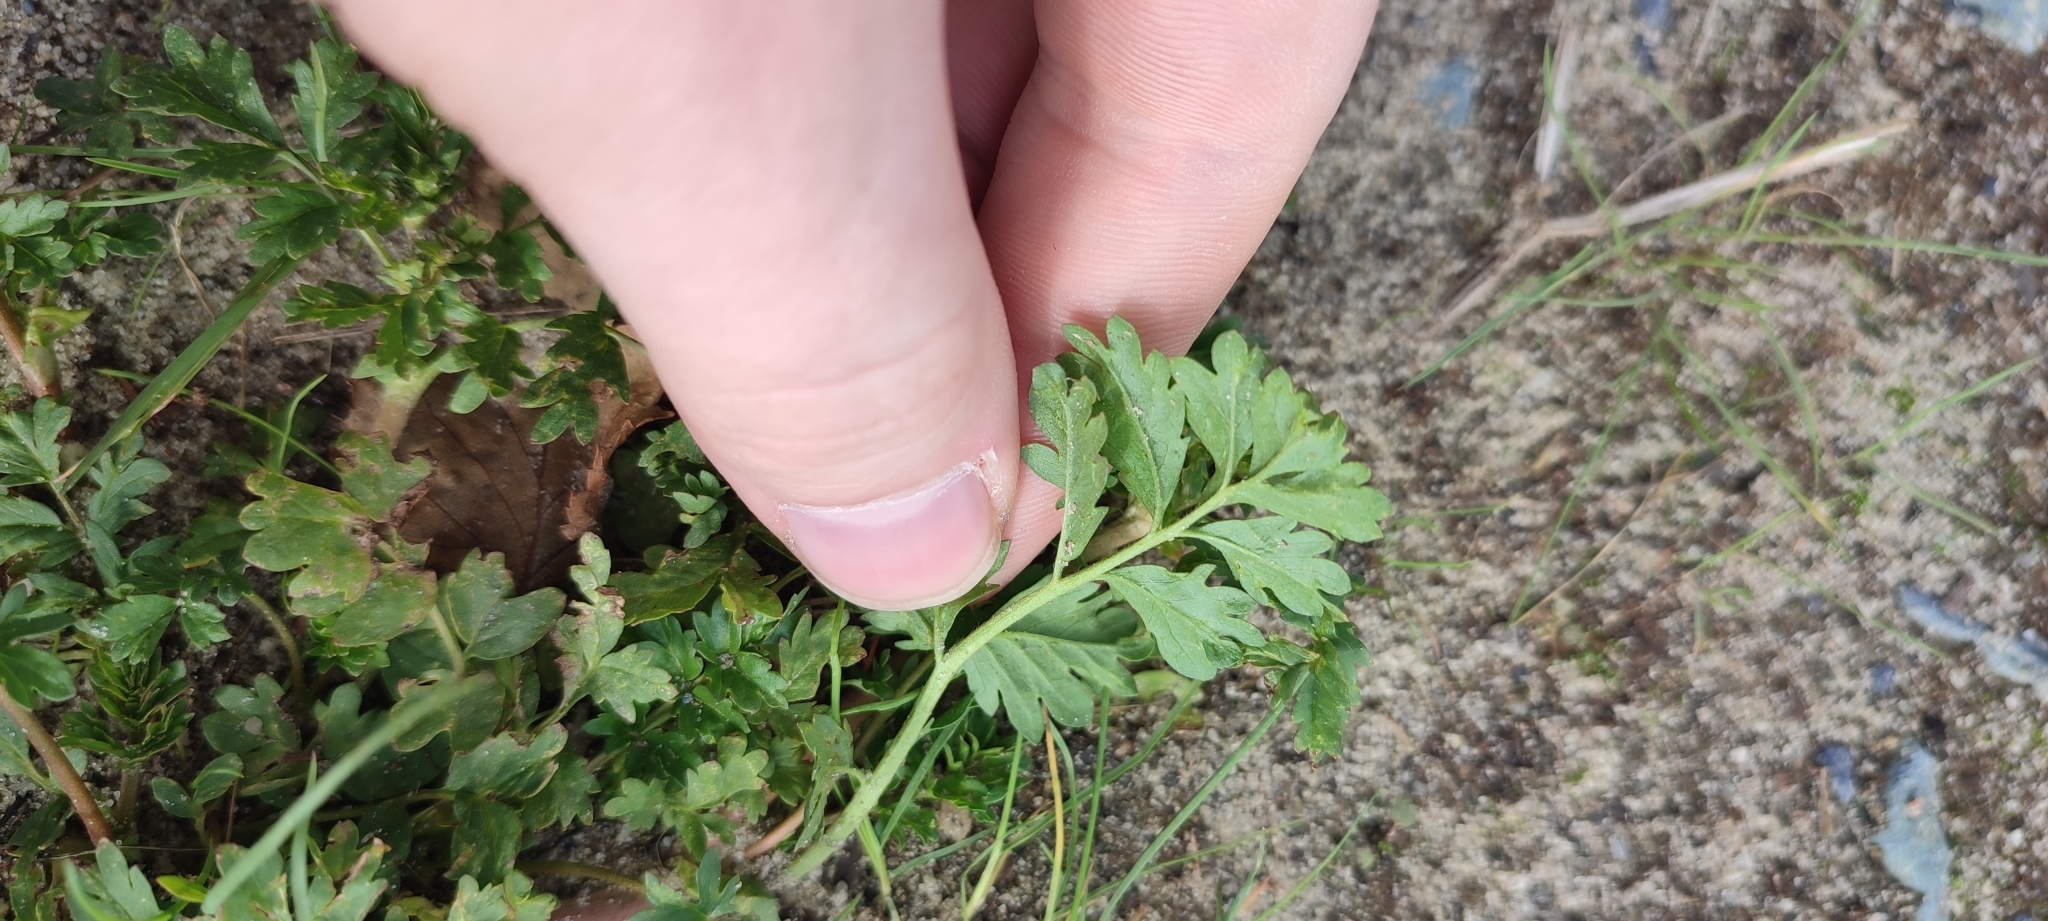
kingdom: Plantae
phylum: Tracheophyta
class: Magnoliopsida
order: Rosales
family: Rosaceae
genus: Potentilla
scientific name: Potentilla supina
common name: Prostrate cinquefoil
